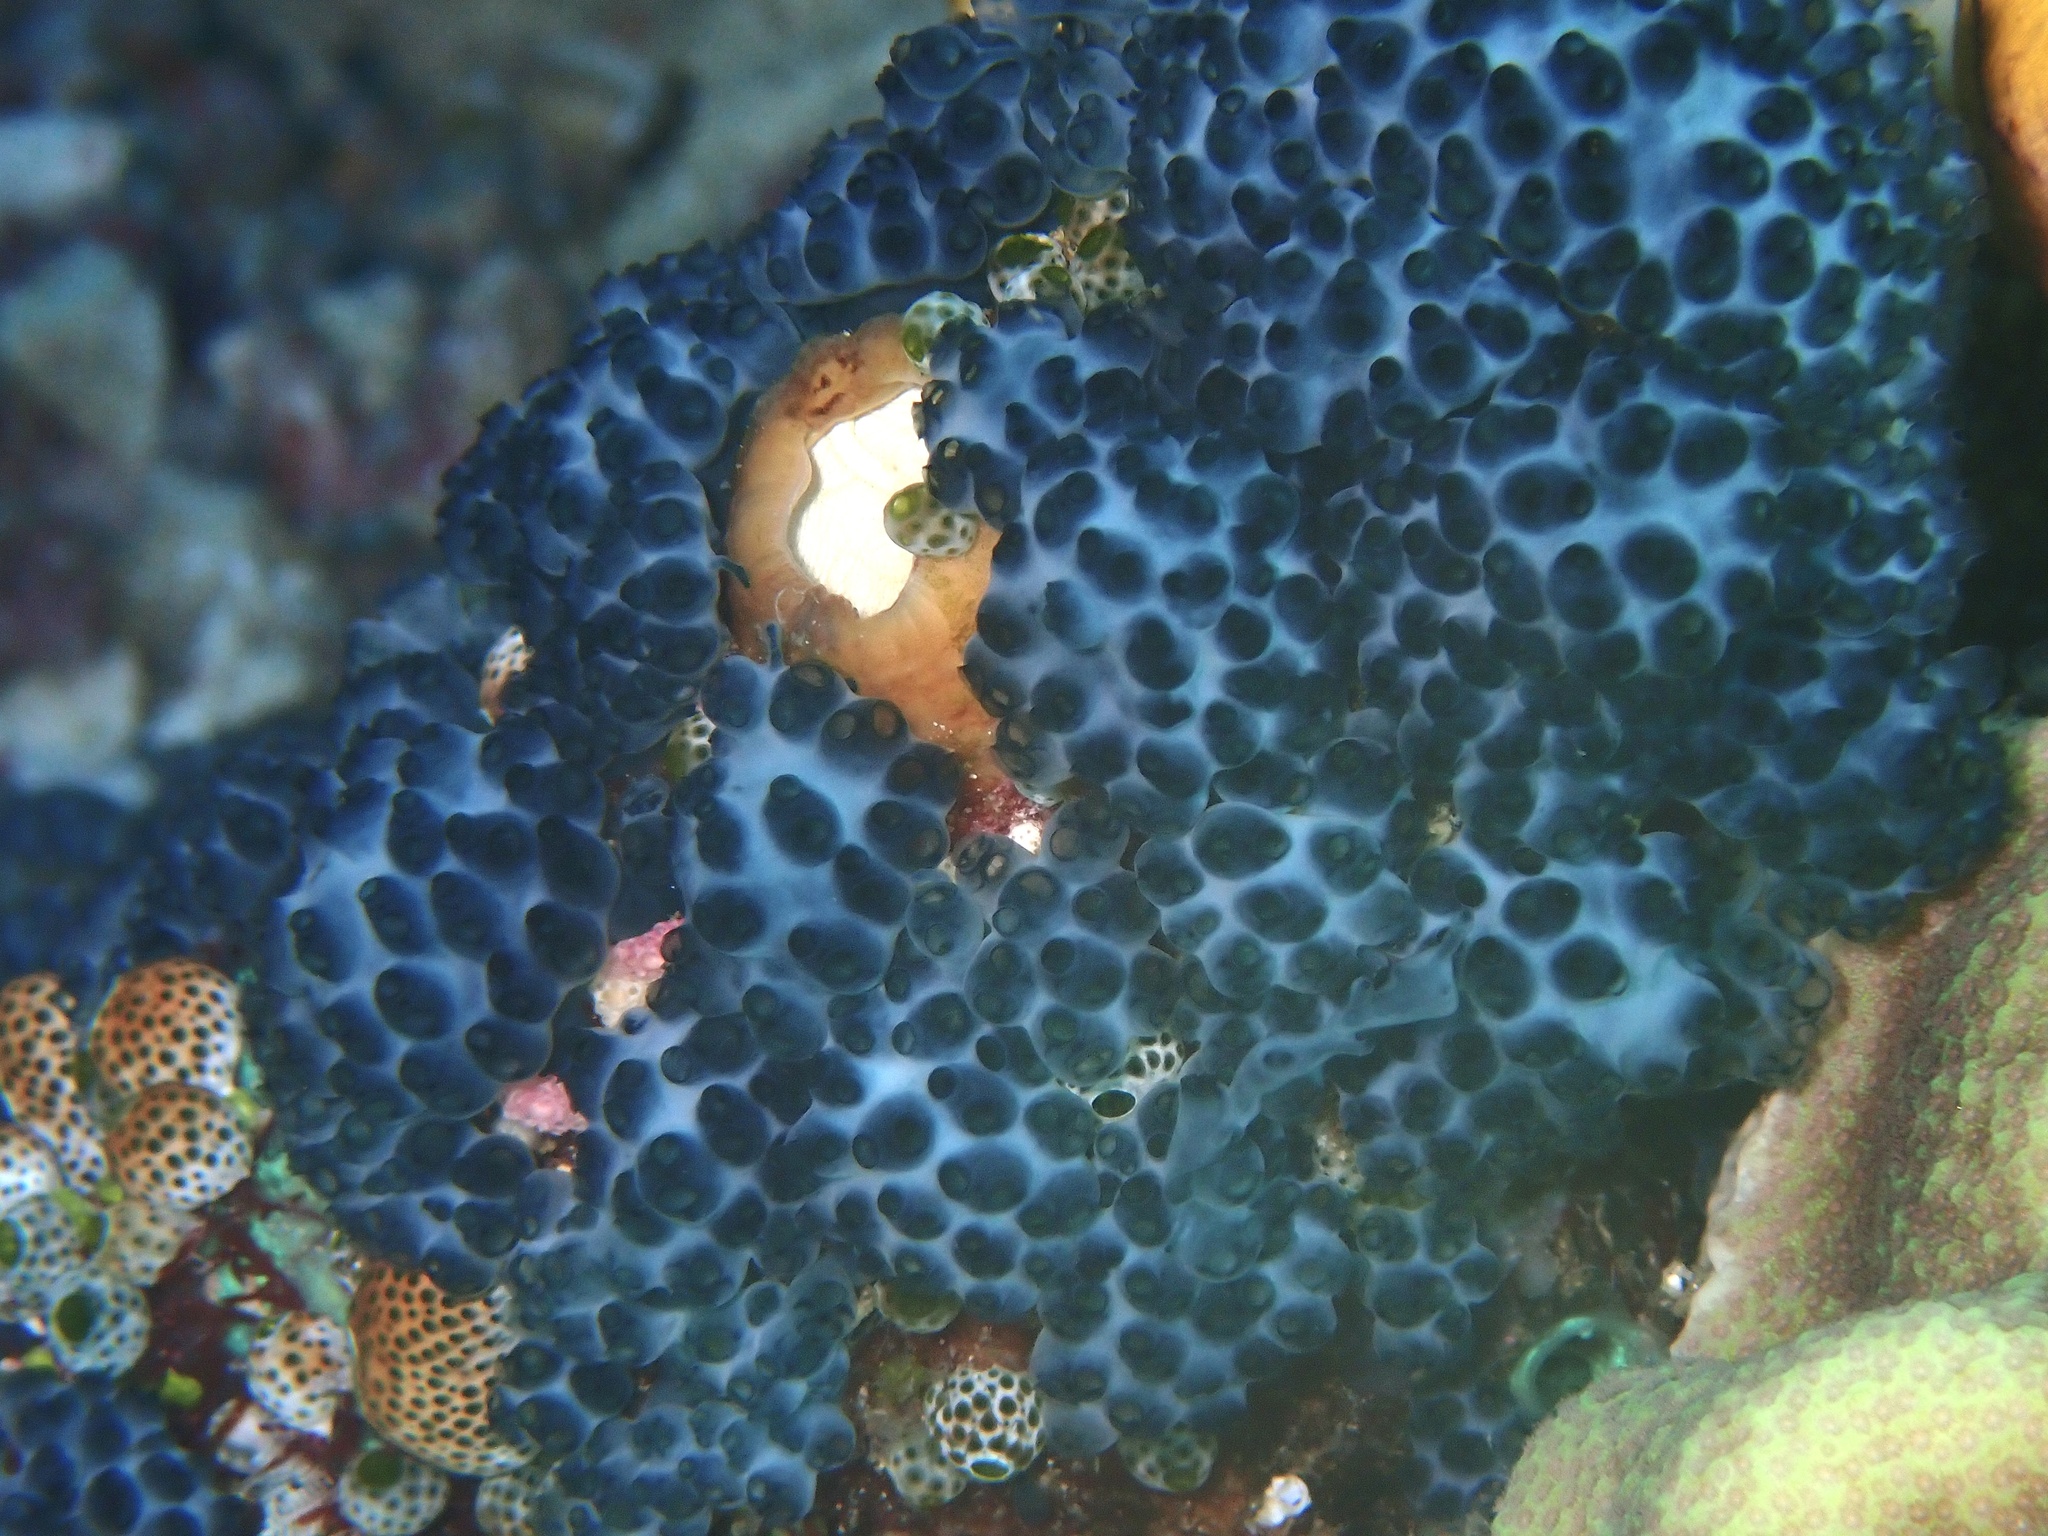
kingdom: Animalia
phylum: Chordata
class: Ascidiacea
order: Aplousobranchia
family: Holozoidae
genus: Sigillina
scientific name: Sigillina signifera
